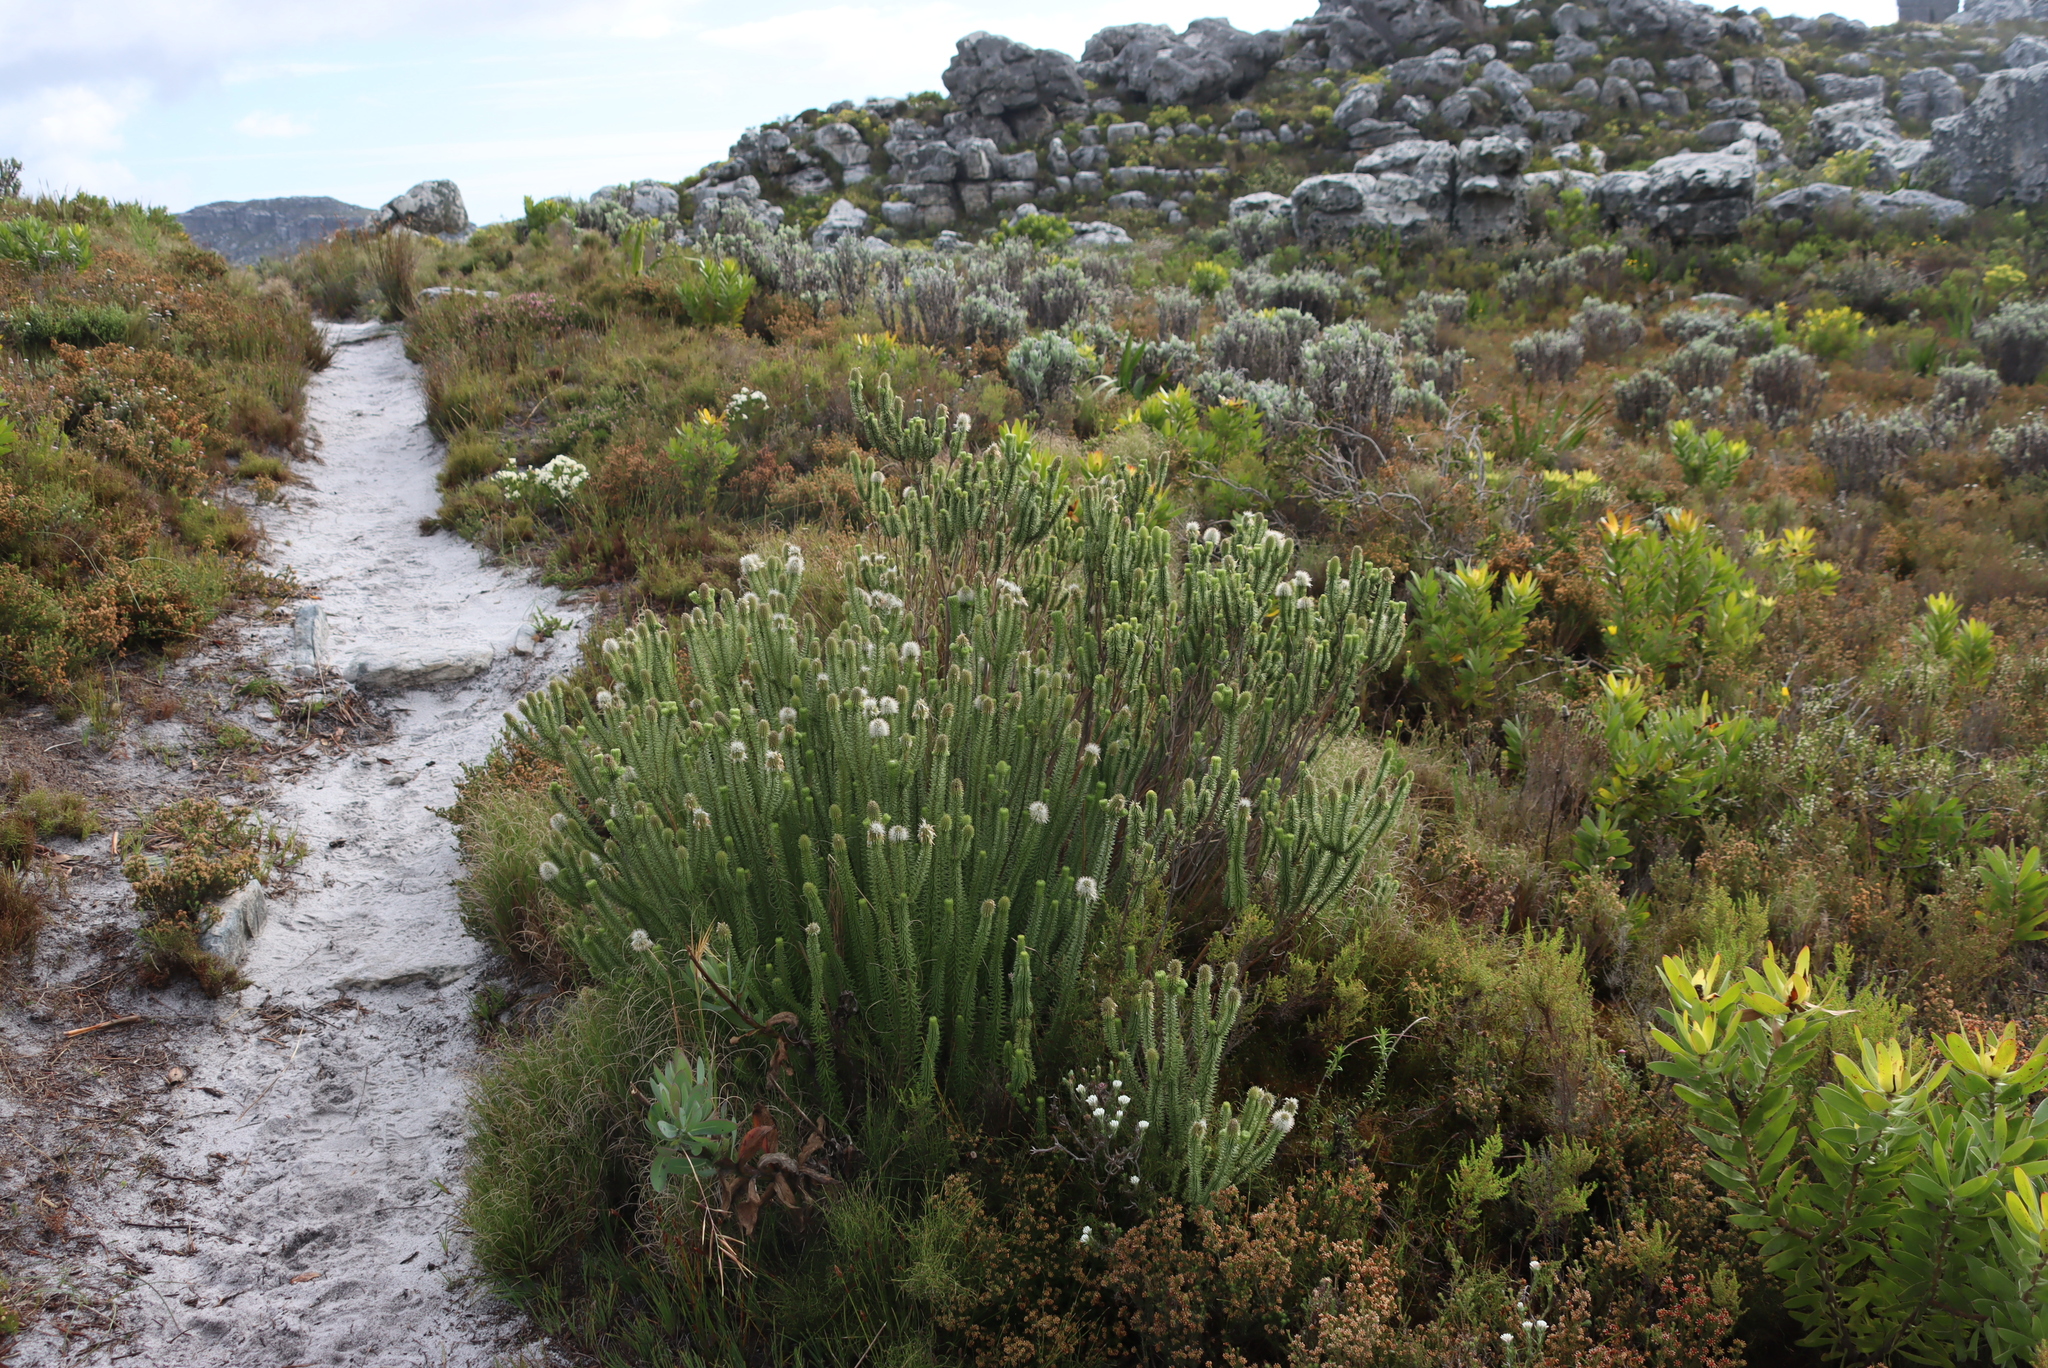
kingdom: Plantae
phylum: Tracheophyta
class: Magnoliopsida
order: Lamiales
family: Stilbaceae
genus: Stilbe
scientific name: Stilbe vestita
